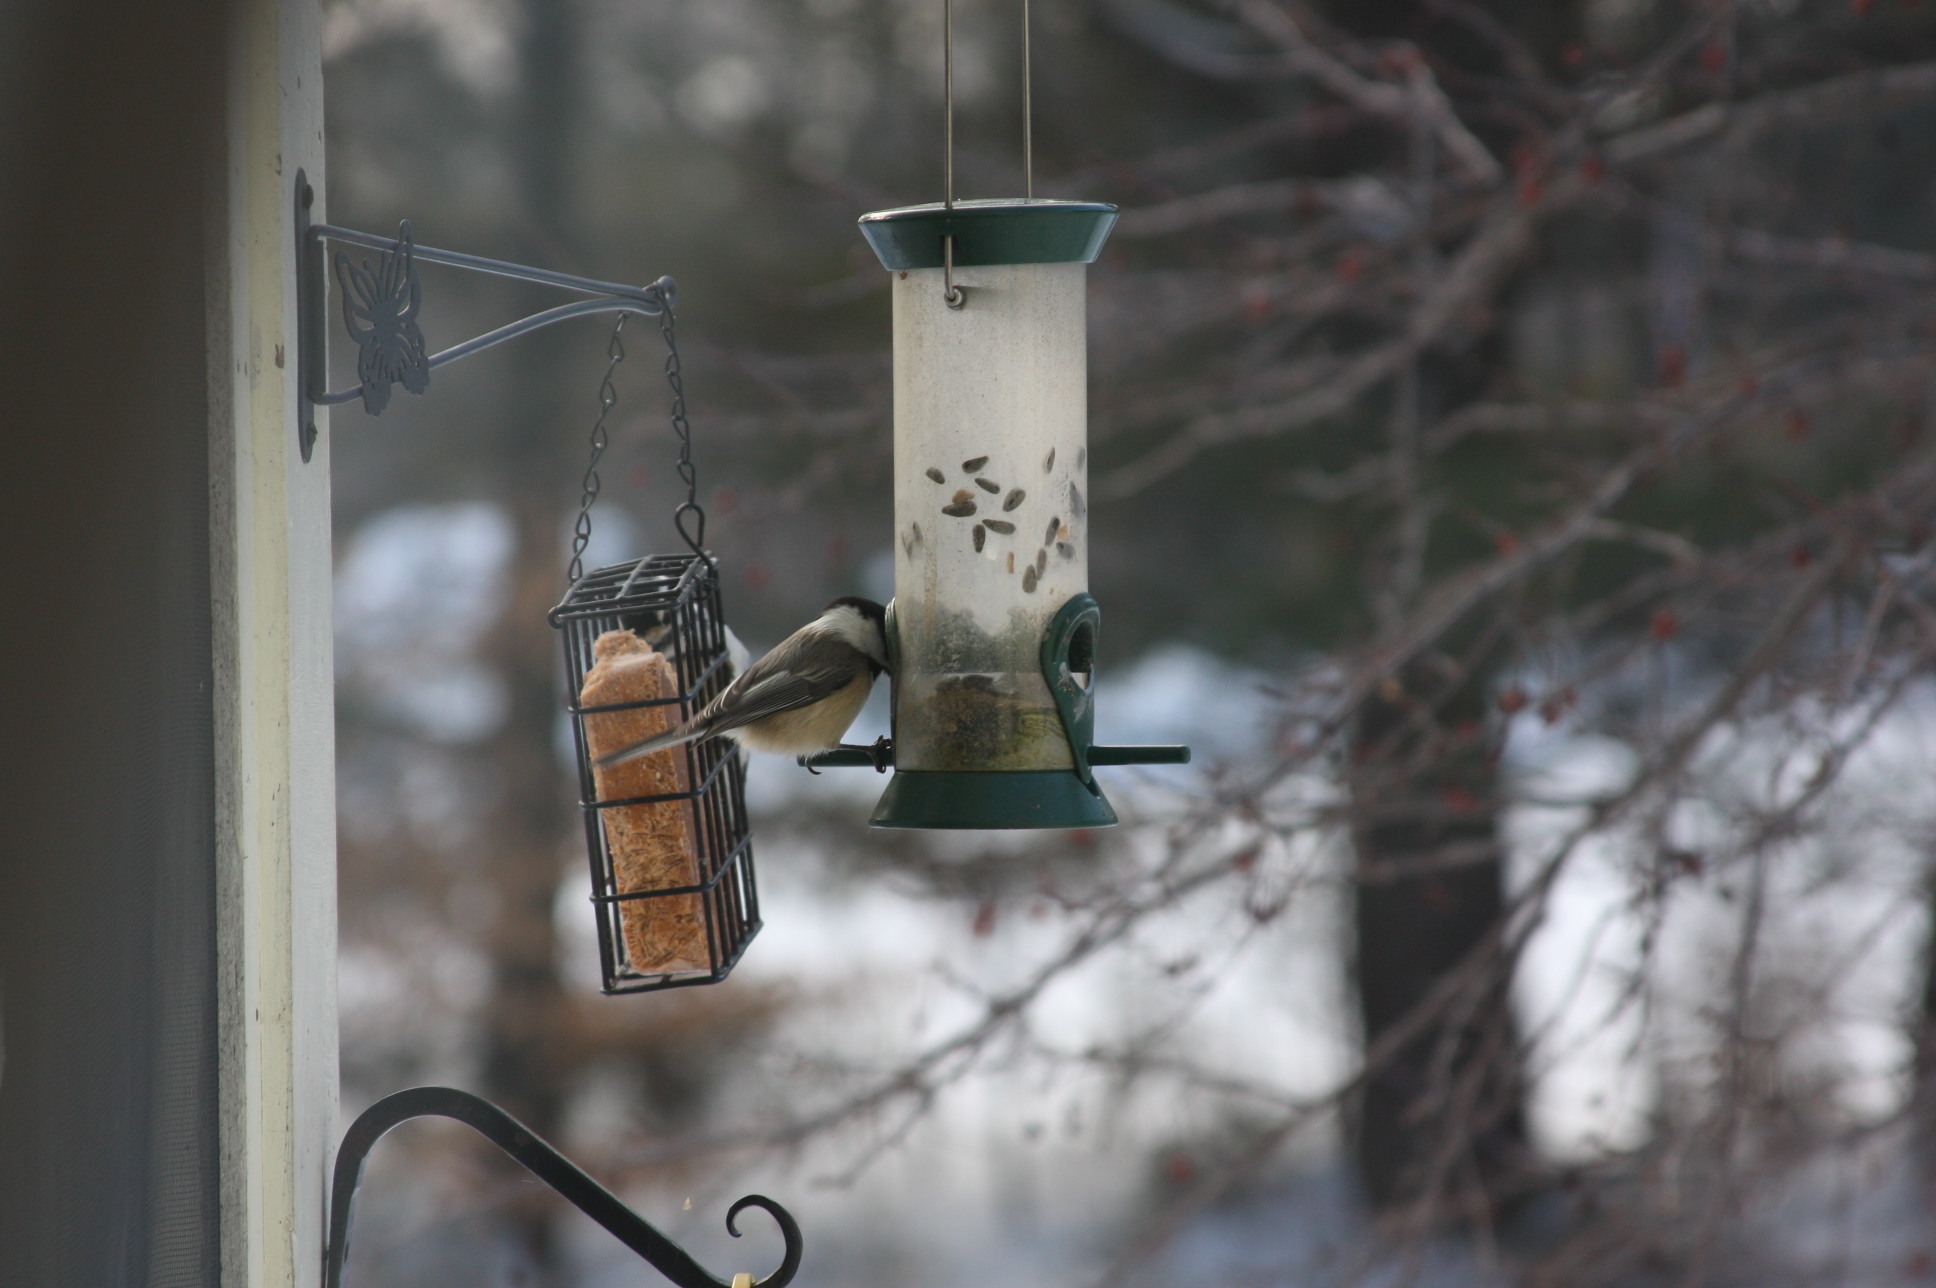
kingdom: Animalia
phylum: Chordata
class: Aves
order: Passeriformes
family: Paridae
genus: Poecile
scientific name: Poecile atricapillus
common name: Black-capped chickadee
